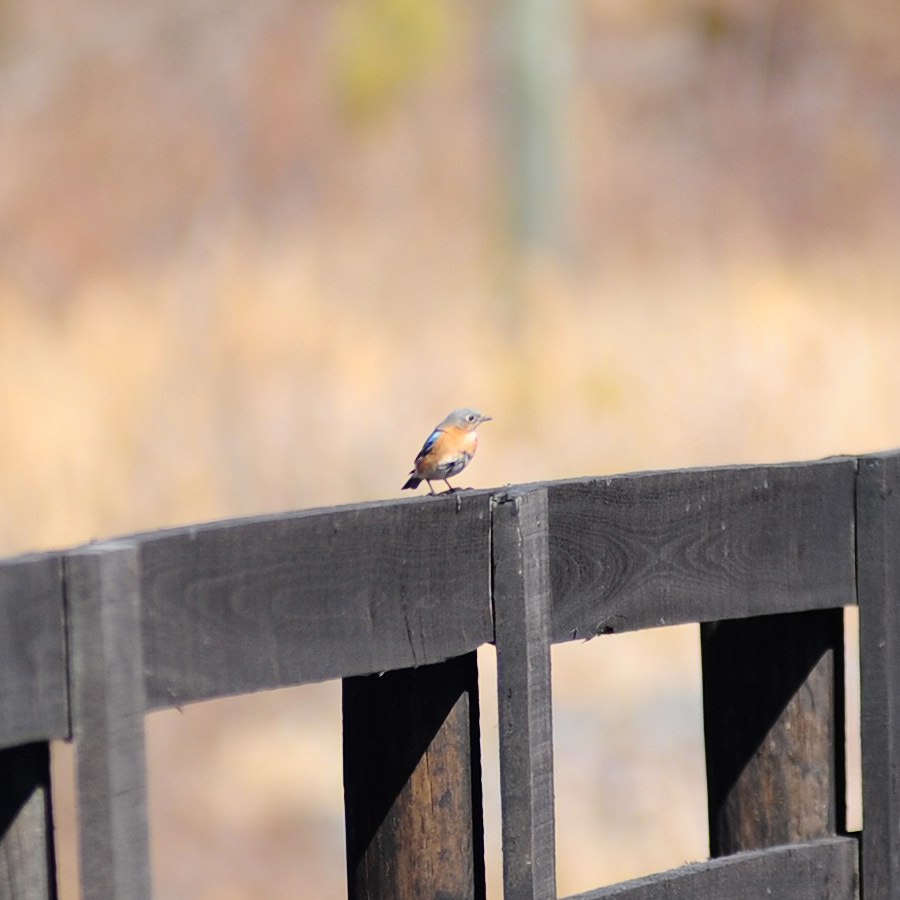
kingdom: Animalia
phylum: Chordata
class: Aves
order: Passeriformes
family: Turdidae
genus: Sialia
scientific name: Sialia sialis
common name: Eastern bluebird
